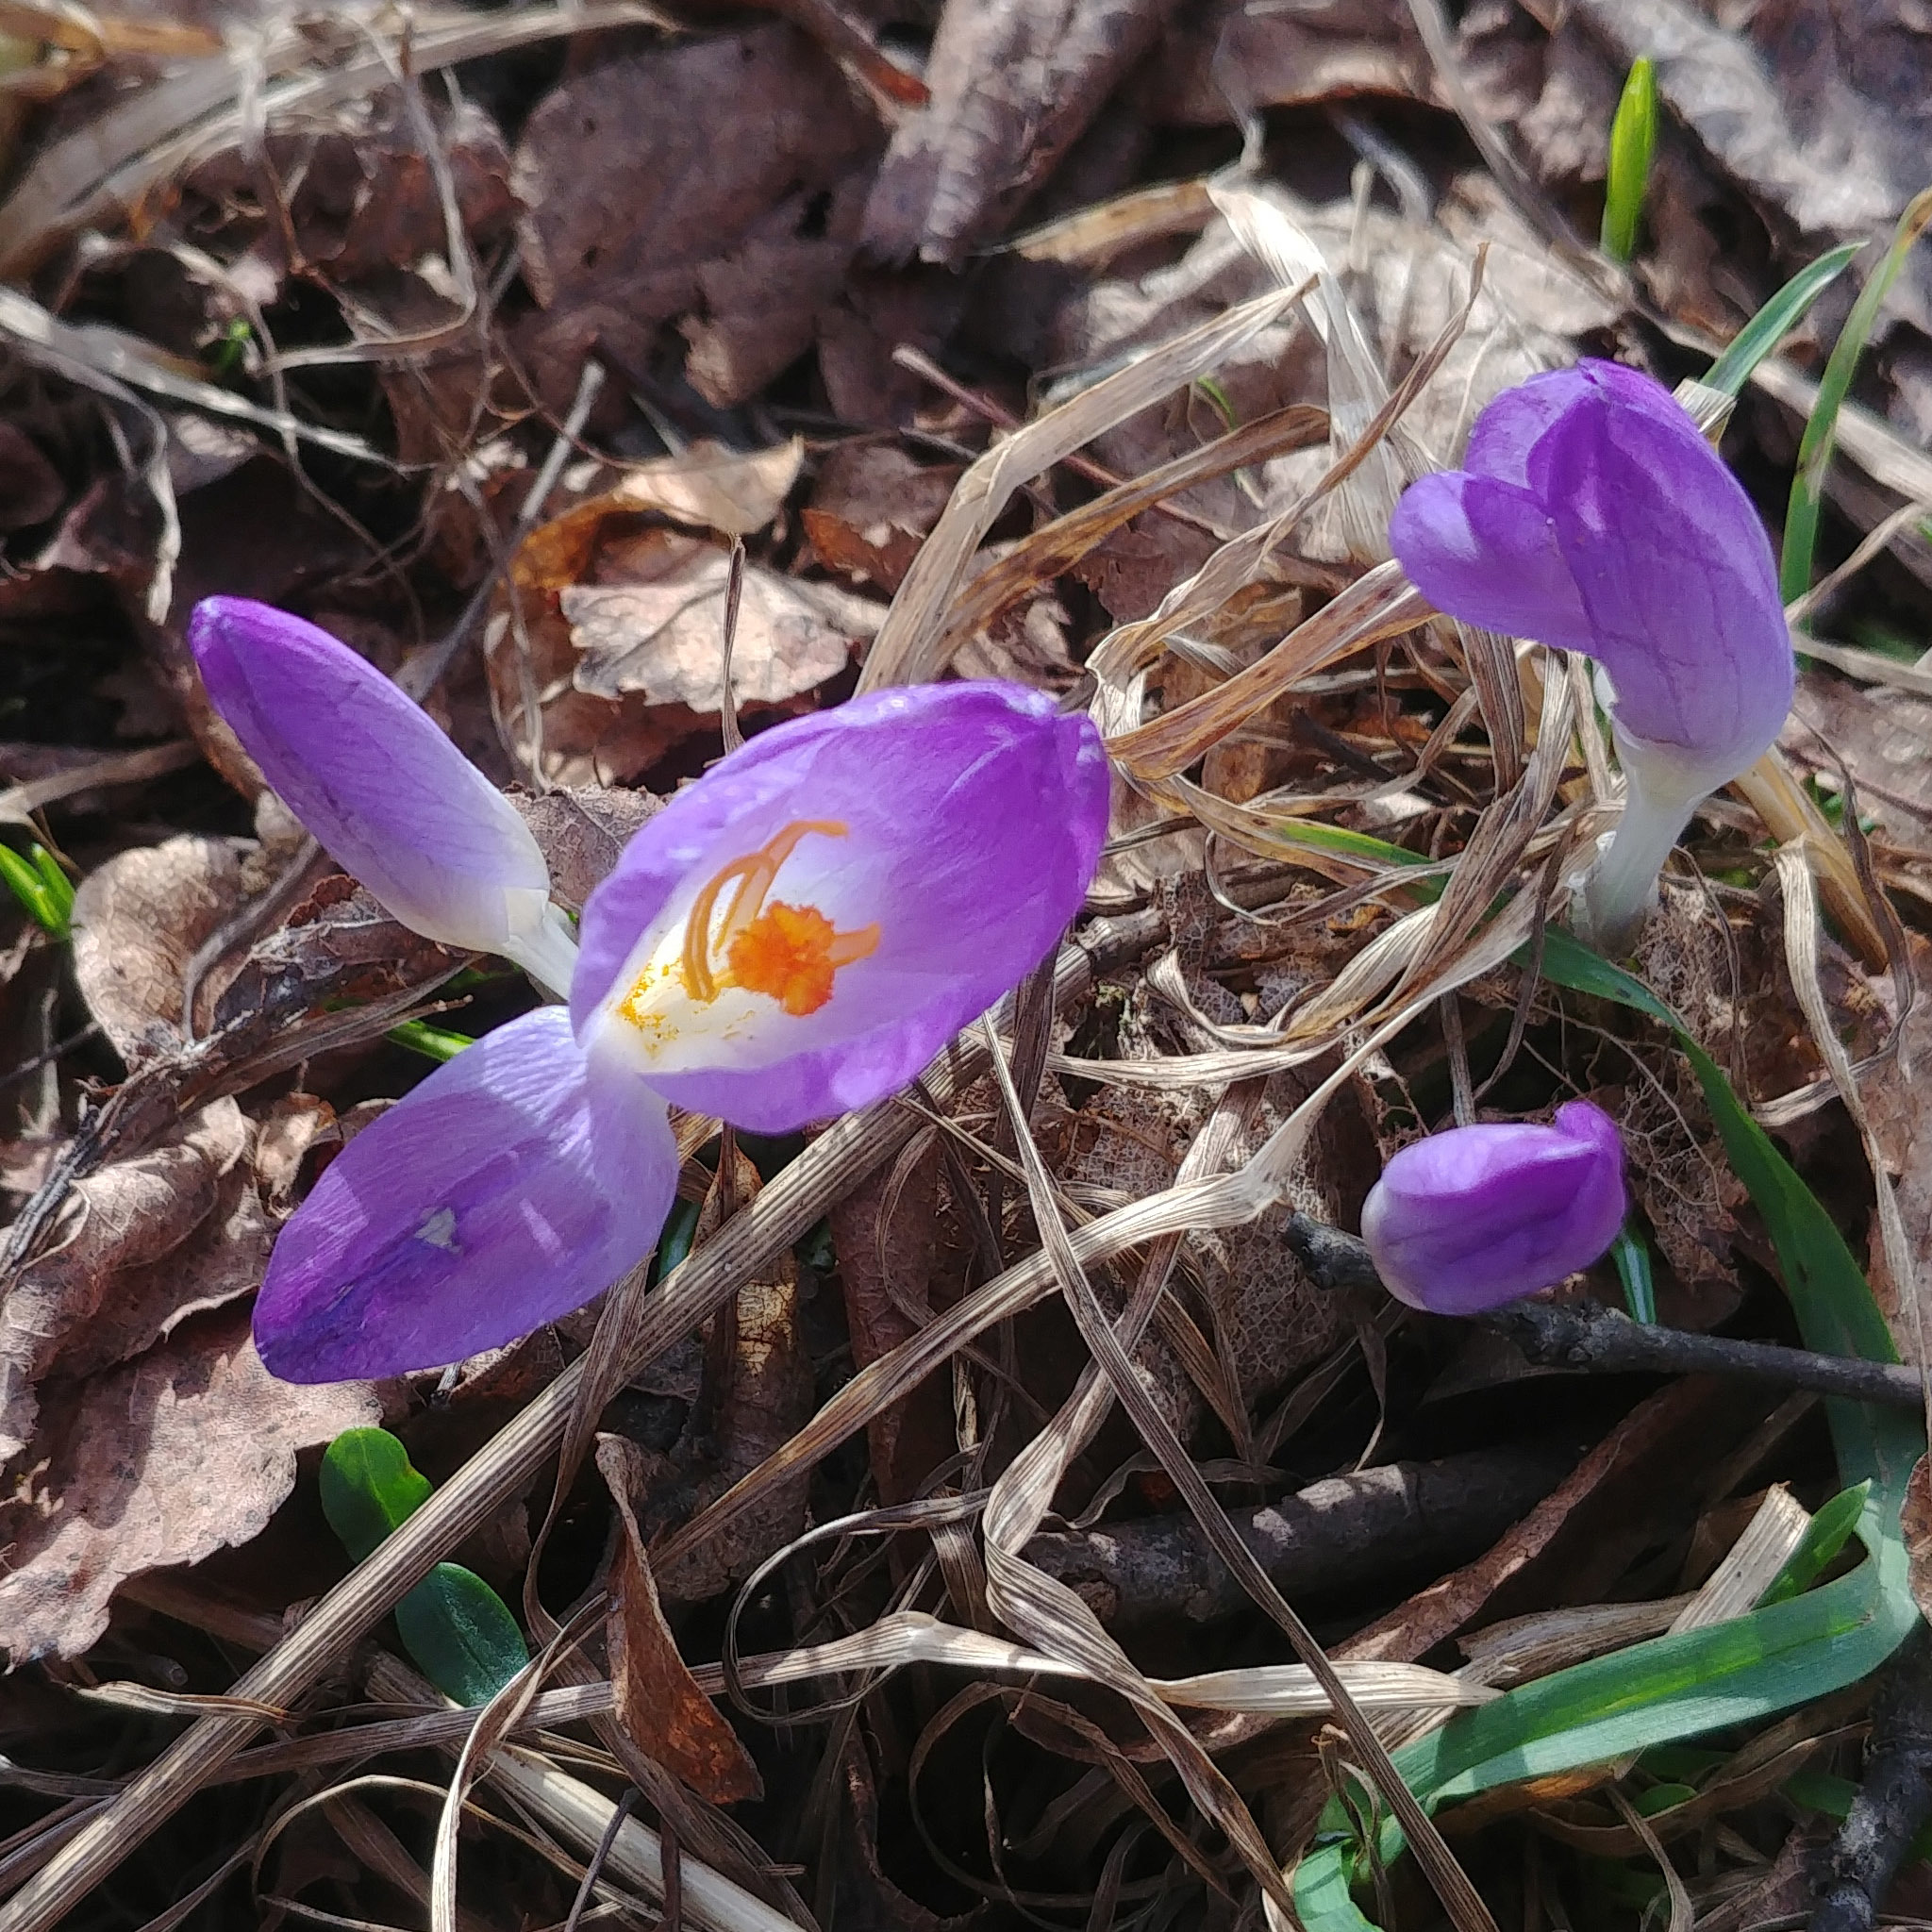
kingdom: Plantae
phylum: Tracheophyta
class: Liliopsida
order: Asparagales
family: Iridaceae
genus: Crocus
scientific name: Crocus tommasinianus
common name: Early crocus
